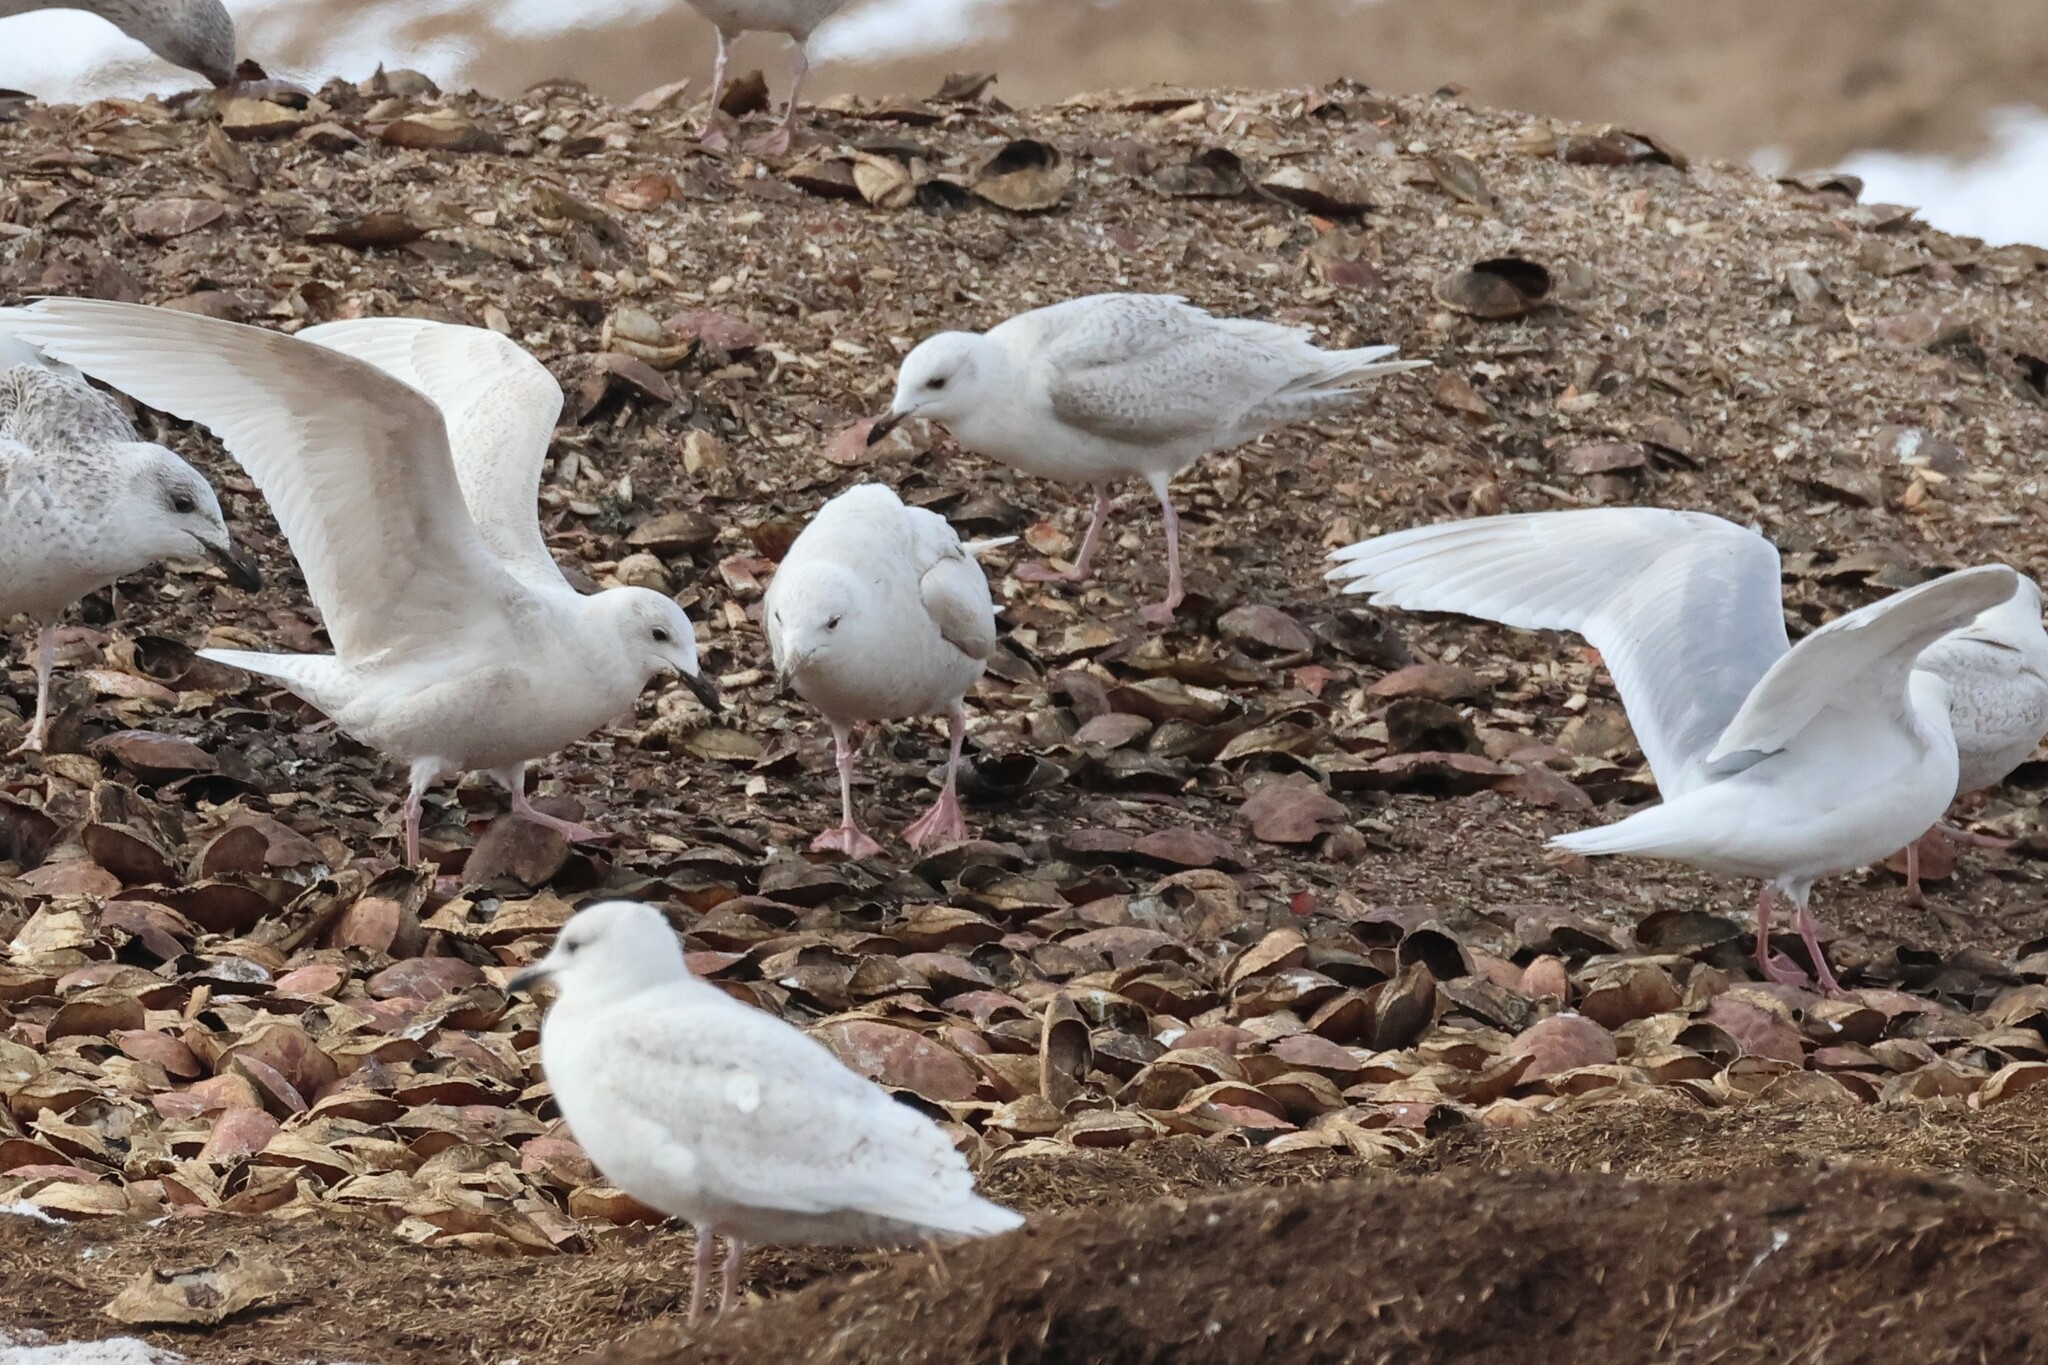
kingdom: Animalia
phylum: Chordata
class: Aves
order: Charadriiformes
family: Laridae
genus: Larus
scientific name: Larus glaucoides
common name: Iceland gull
